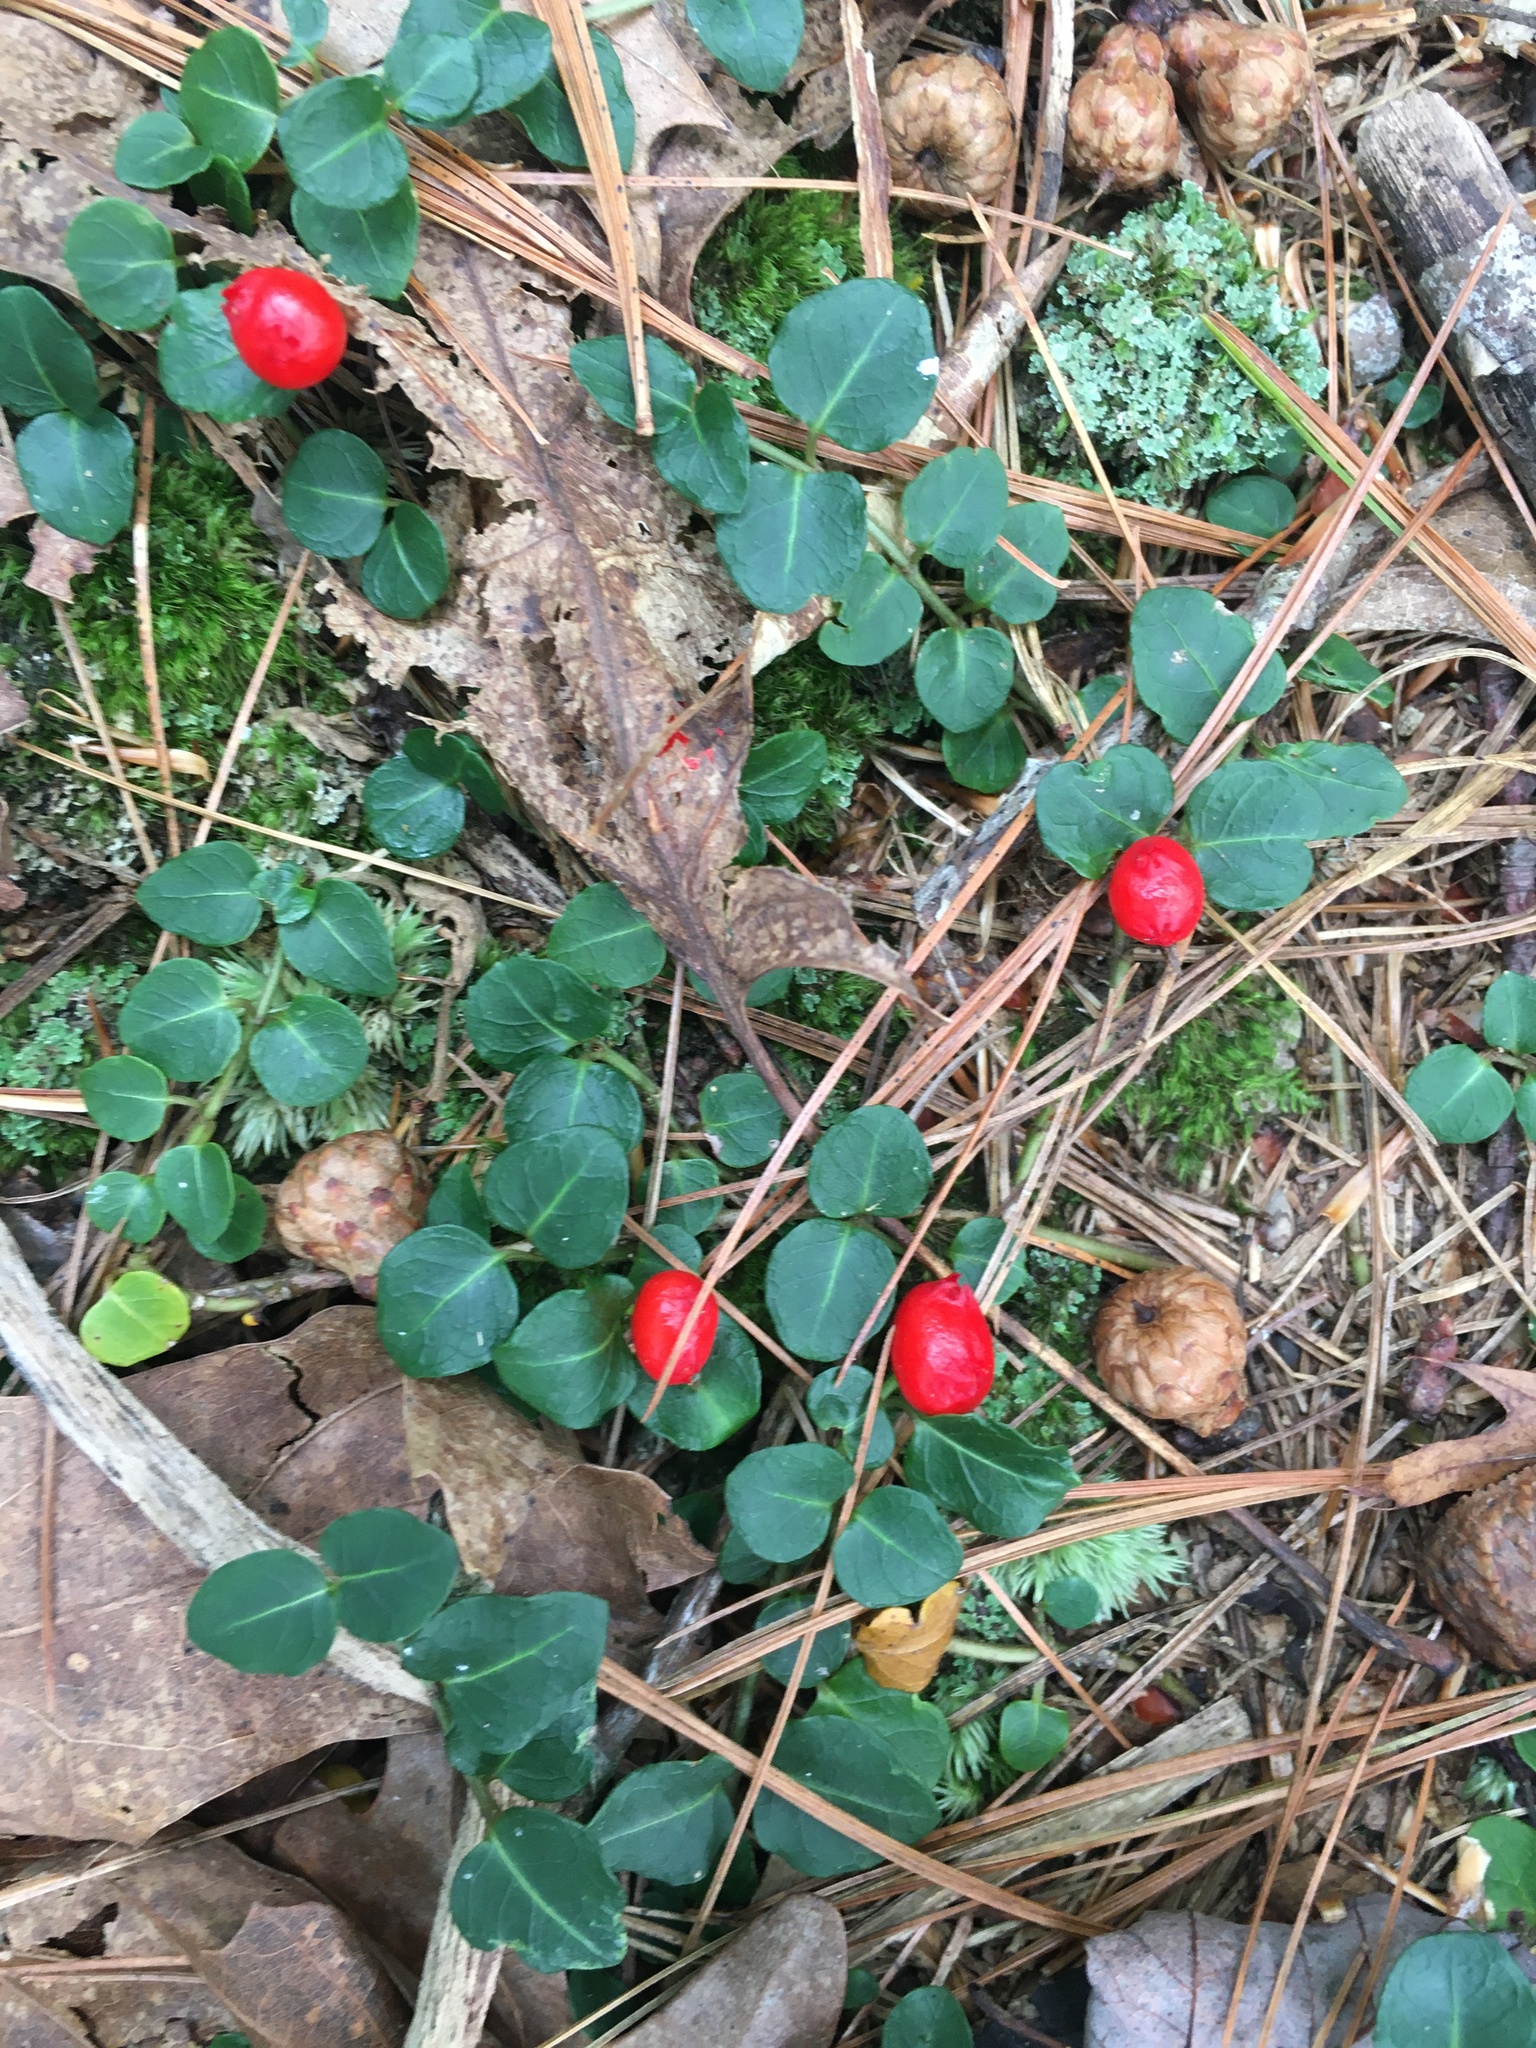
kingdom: Plantae
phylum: Tracheophyta
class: Magnoliopsida
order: Gentianales
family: Rubiaceae
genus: Mitchella
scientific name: Mitchella repens
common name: Partridge-berry
